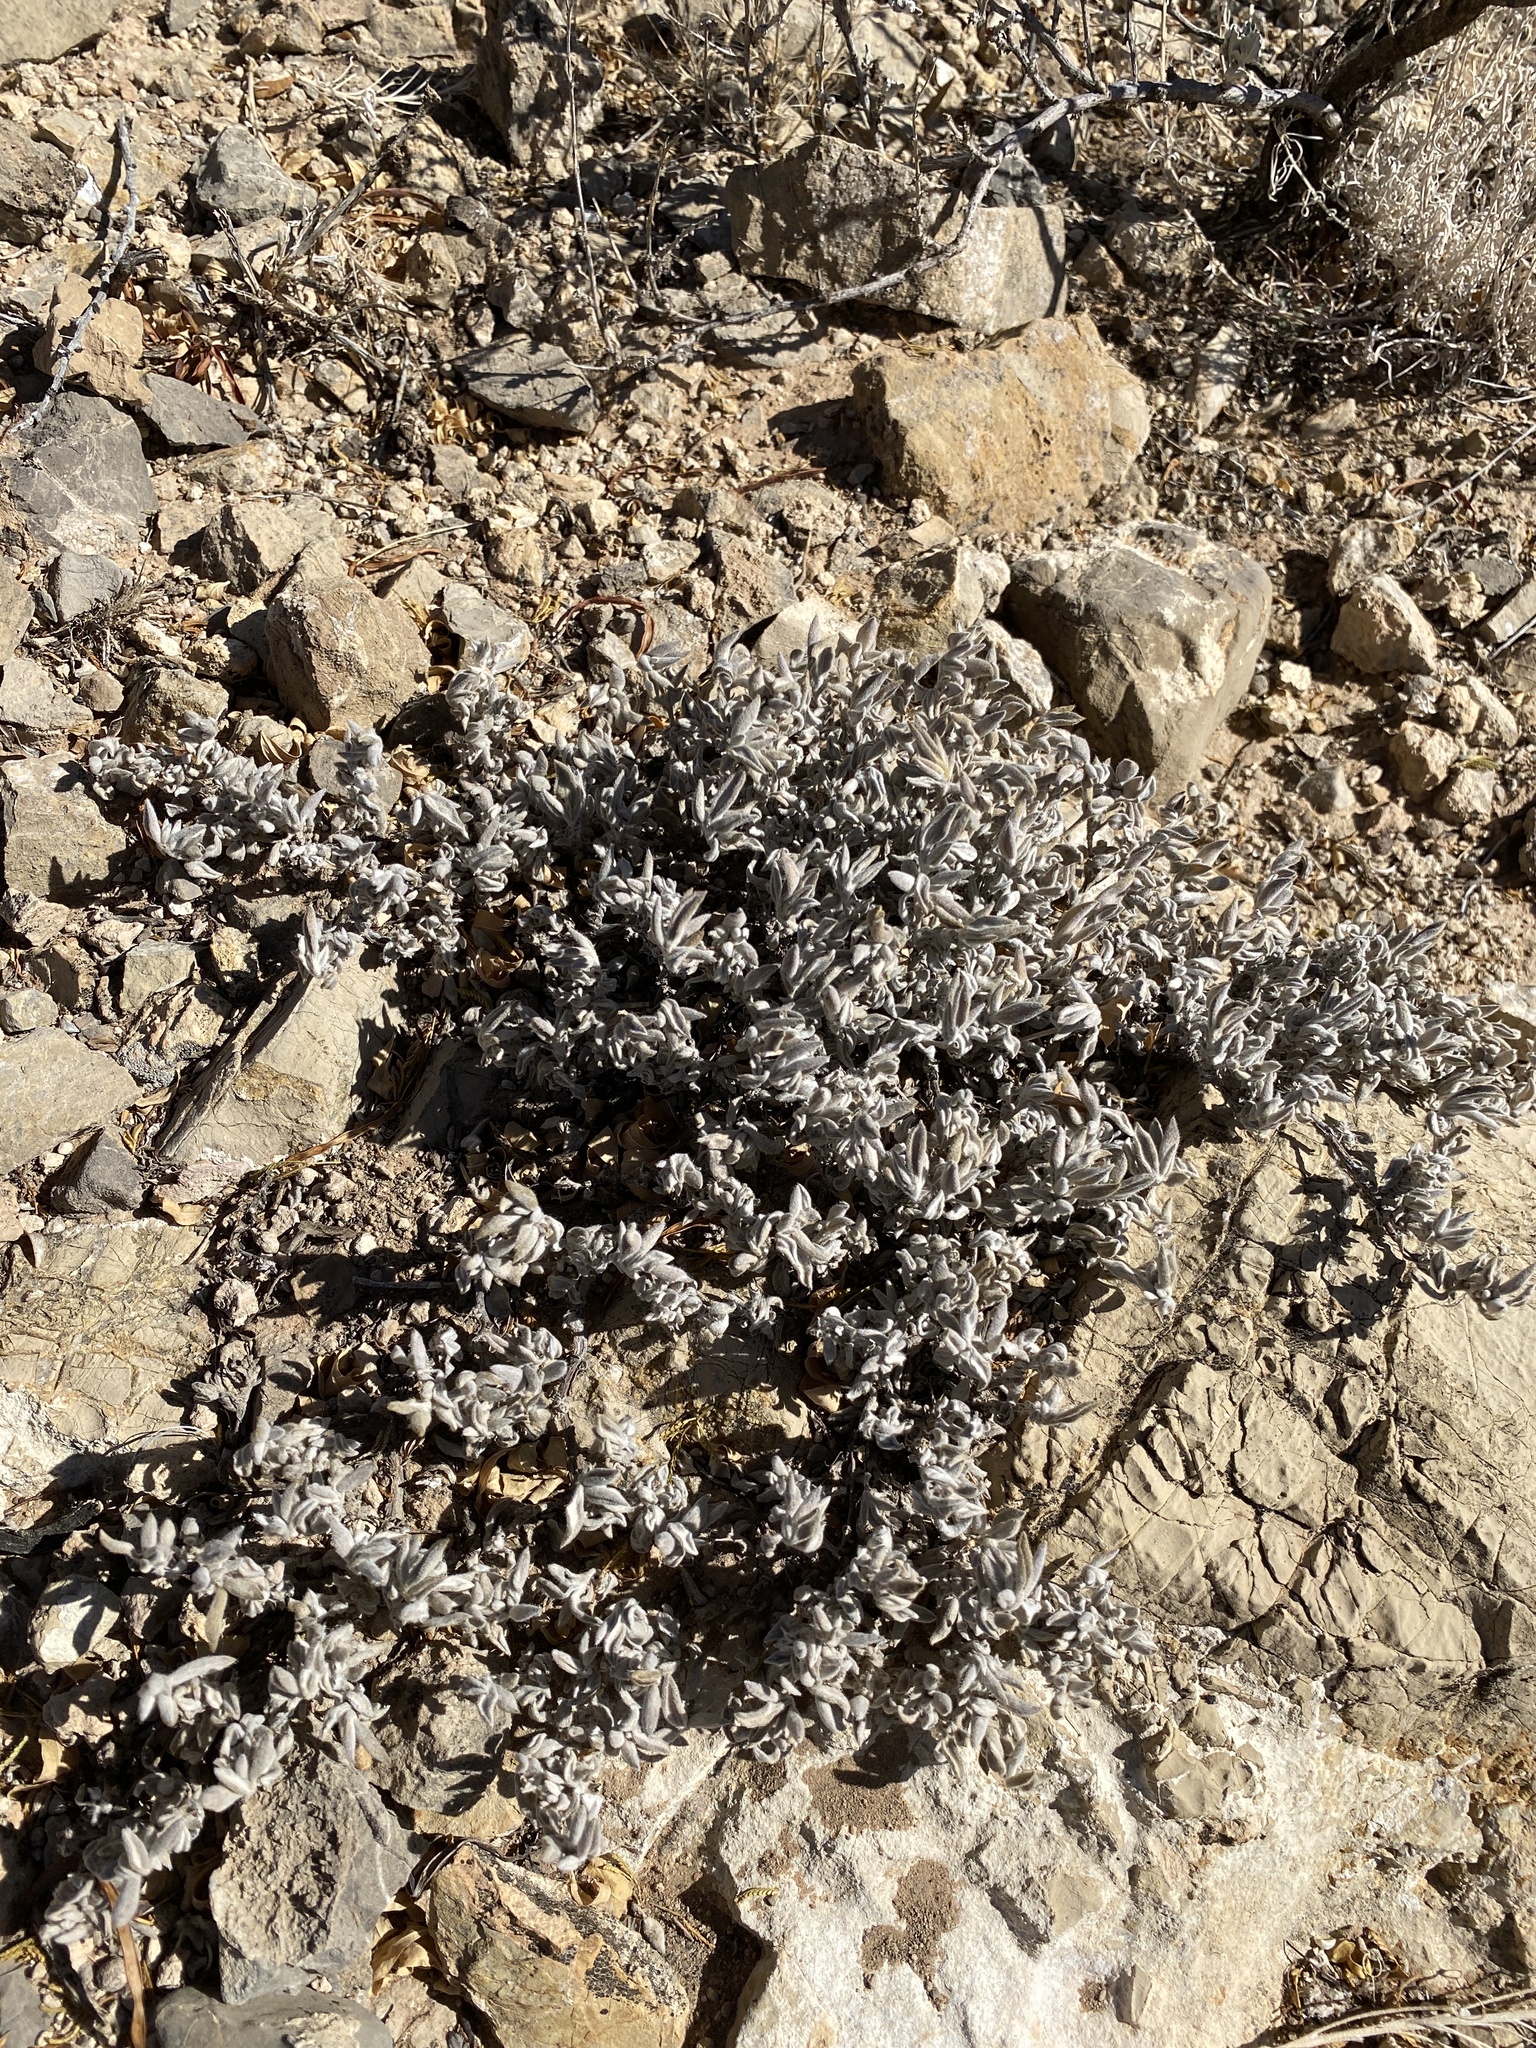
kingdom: Plantae
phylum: Tracheophyta
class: Magnoliopsida
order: Boraginales
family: Ehretiaceae
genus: Tiquilia
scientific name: Tiquilia canescens
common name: Hairy tiquilia
